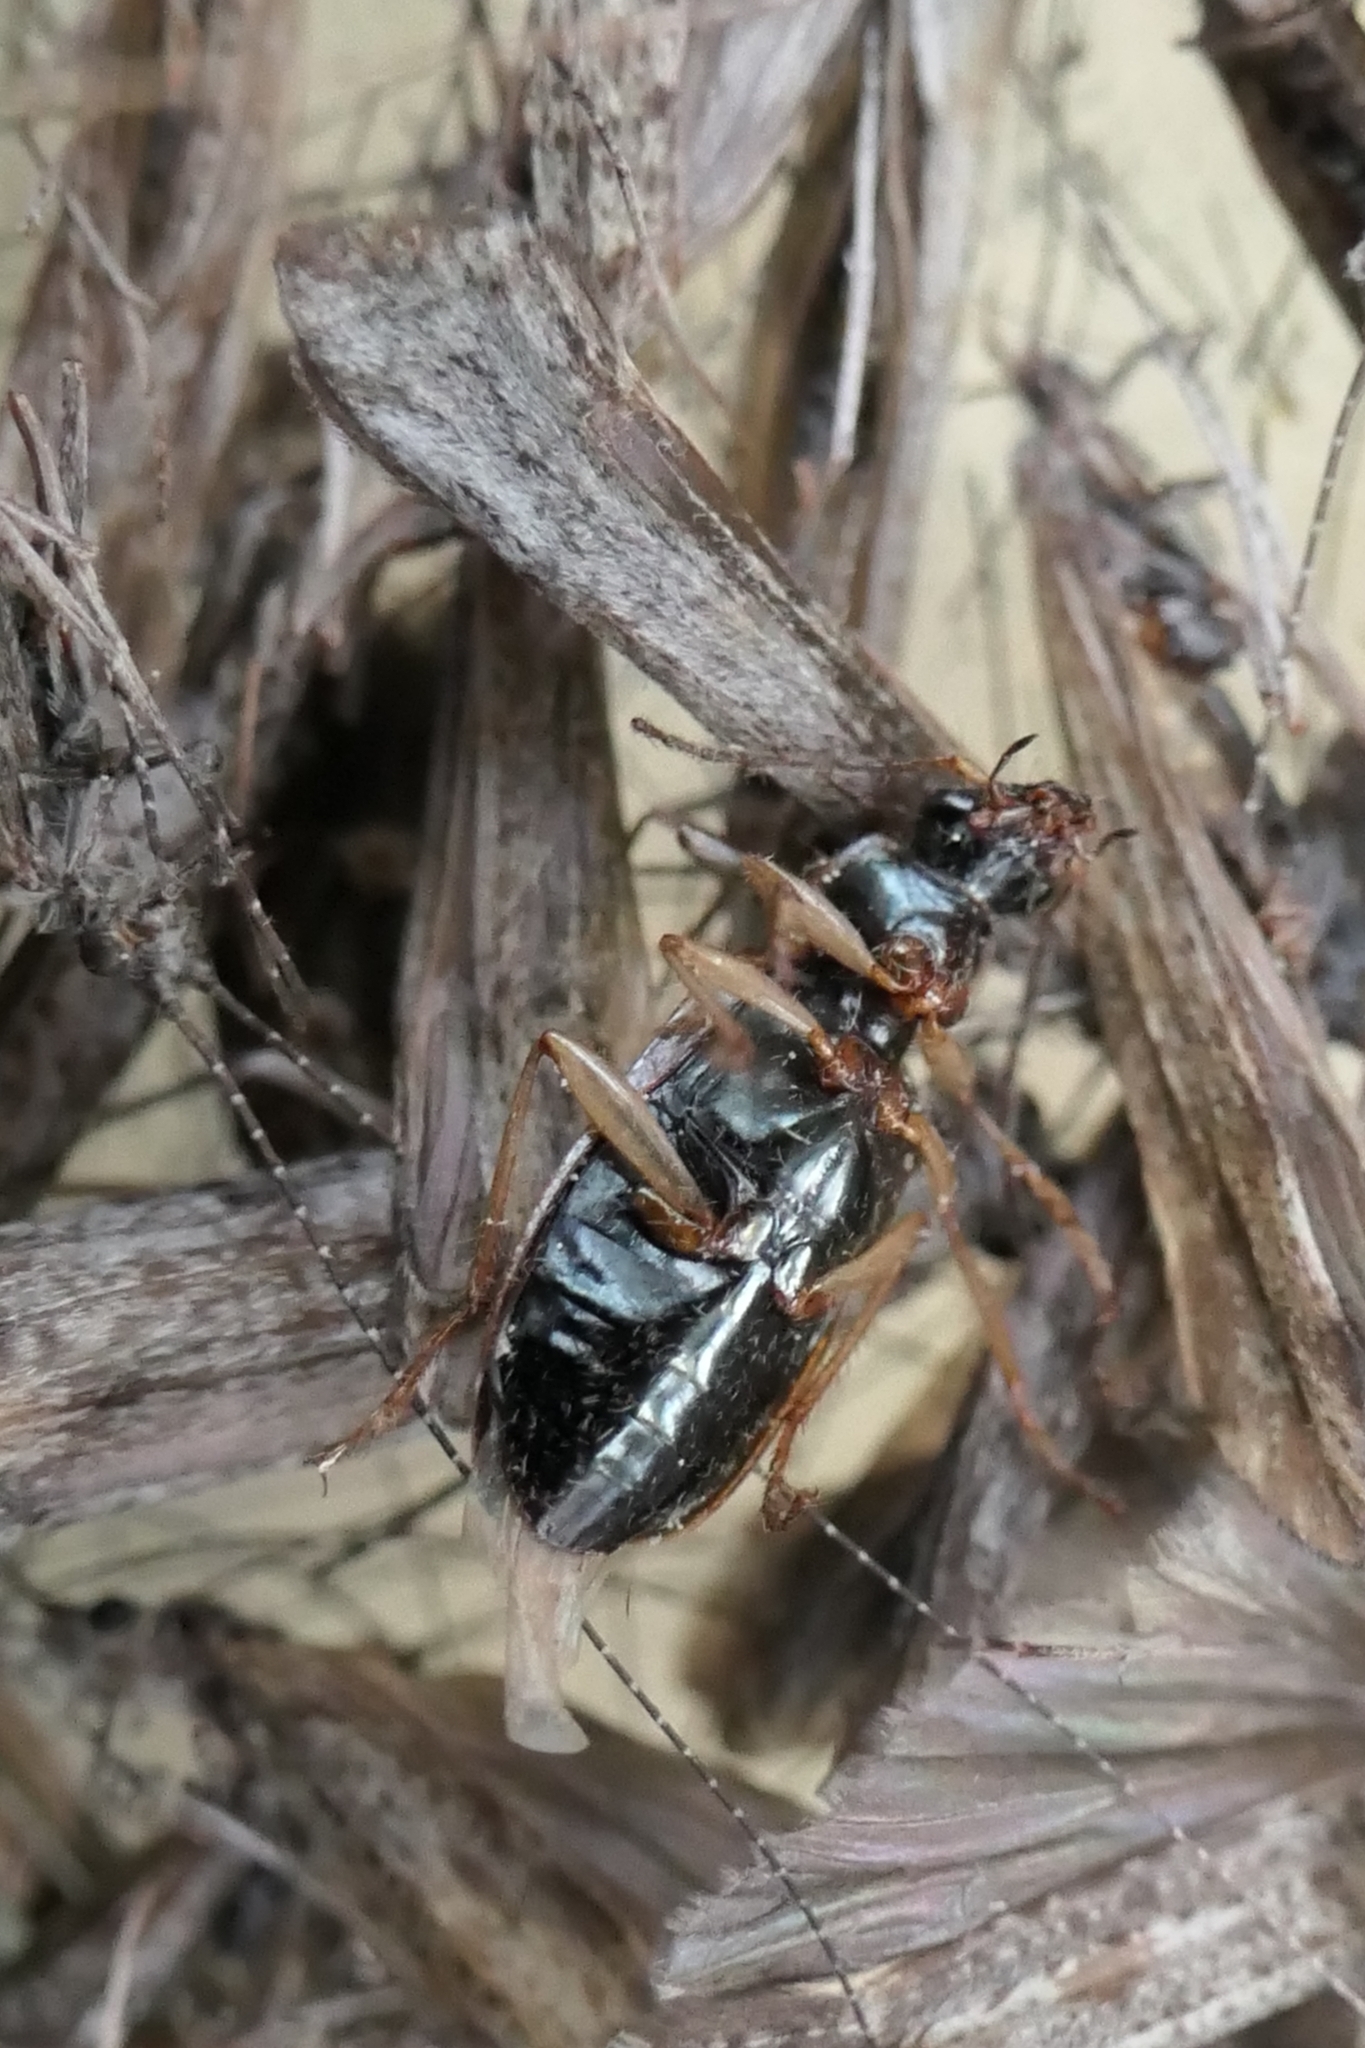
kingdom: Animalia
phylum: Arthropoda
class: Insecta
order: Coleoptera
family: Carabidae
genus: Notagonum
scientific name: Notagonum submetallicum
